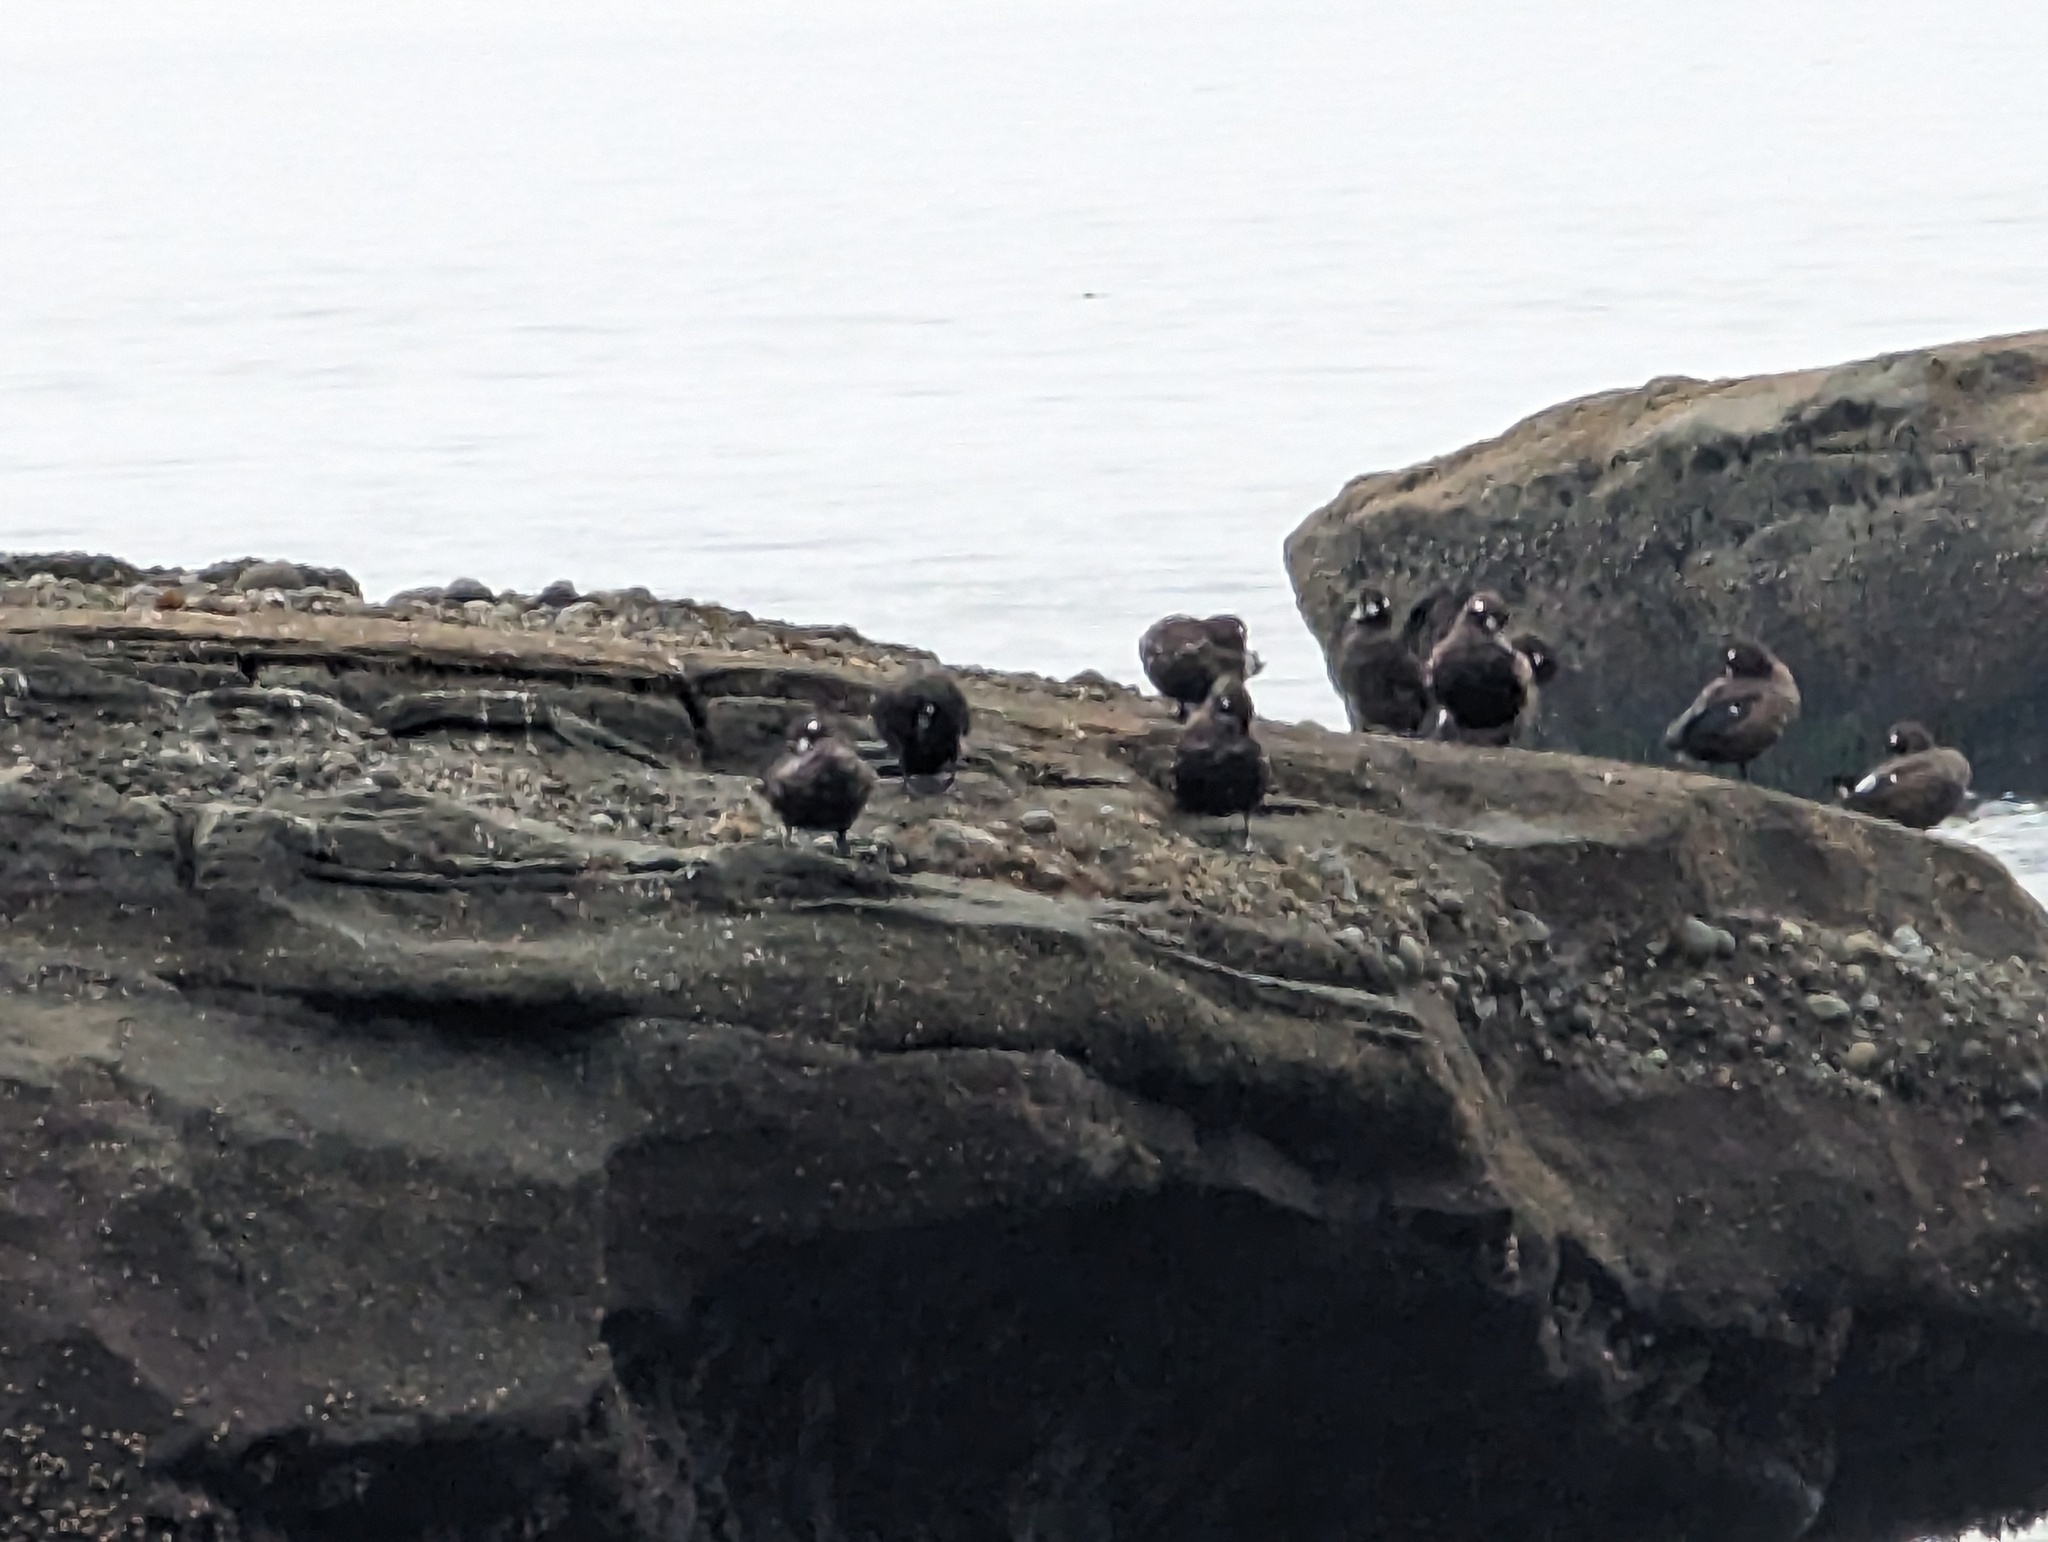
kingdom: Animalia
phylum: Chordata
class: Aves
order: Anseriformes
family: Anatidae
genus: Histrionicus
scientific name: Histrionicus histrionicus
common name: Harlequin duck
